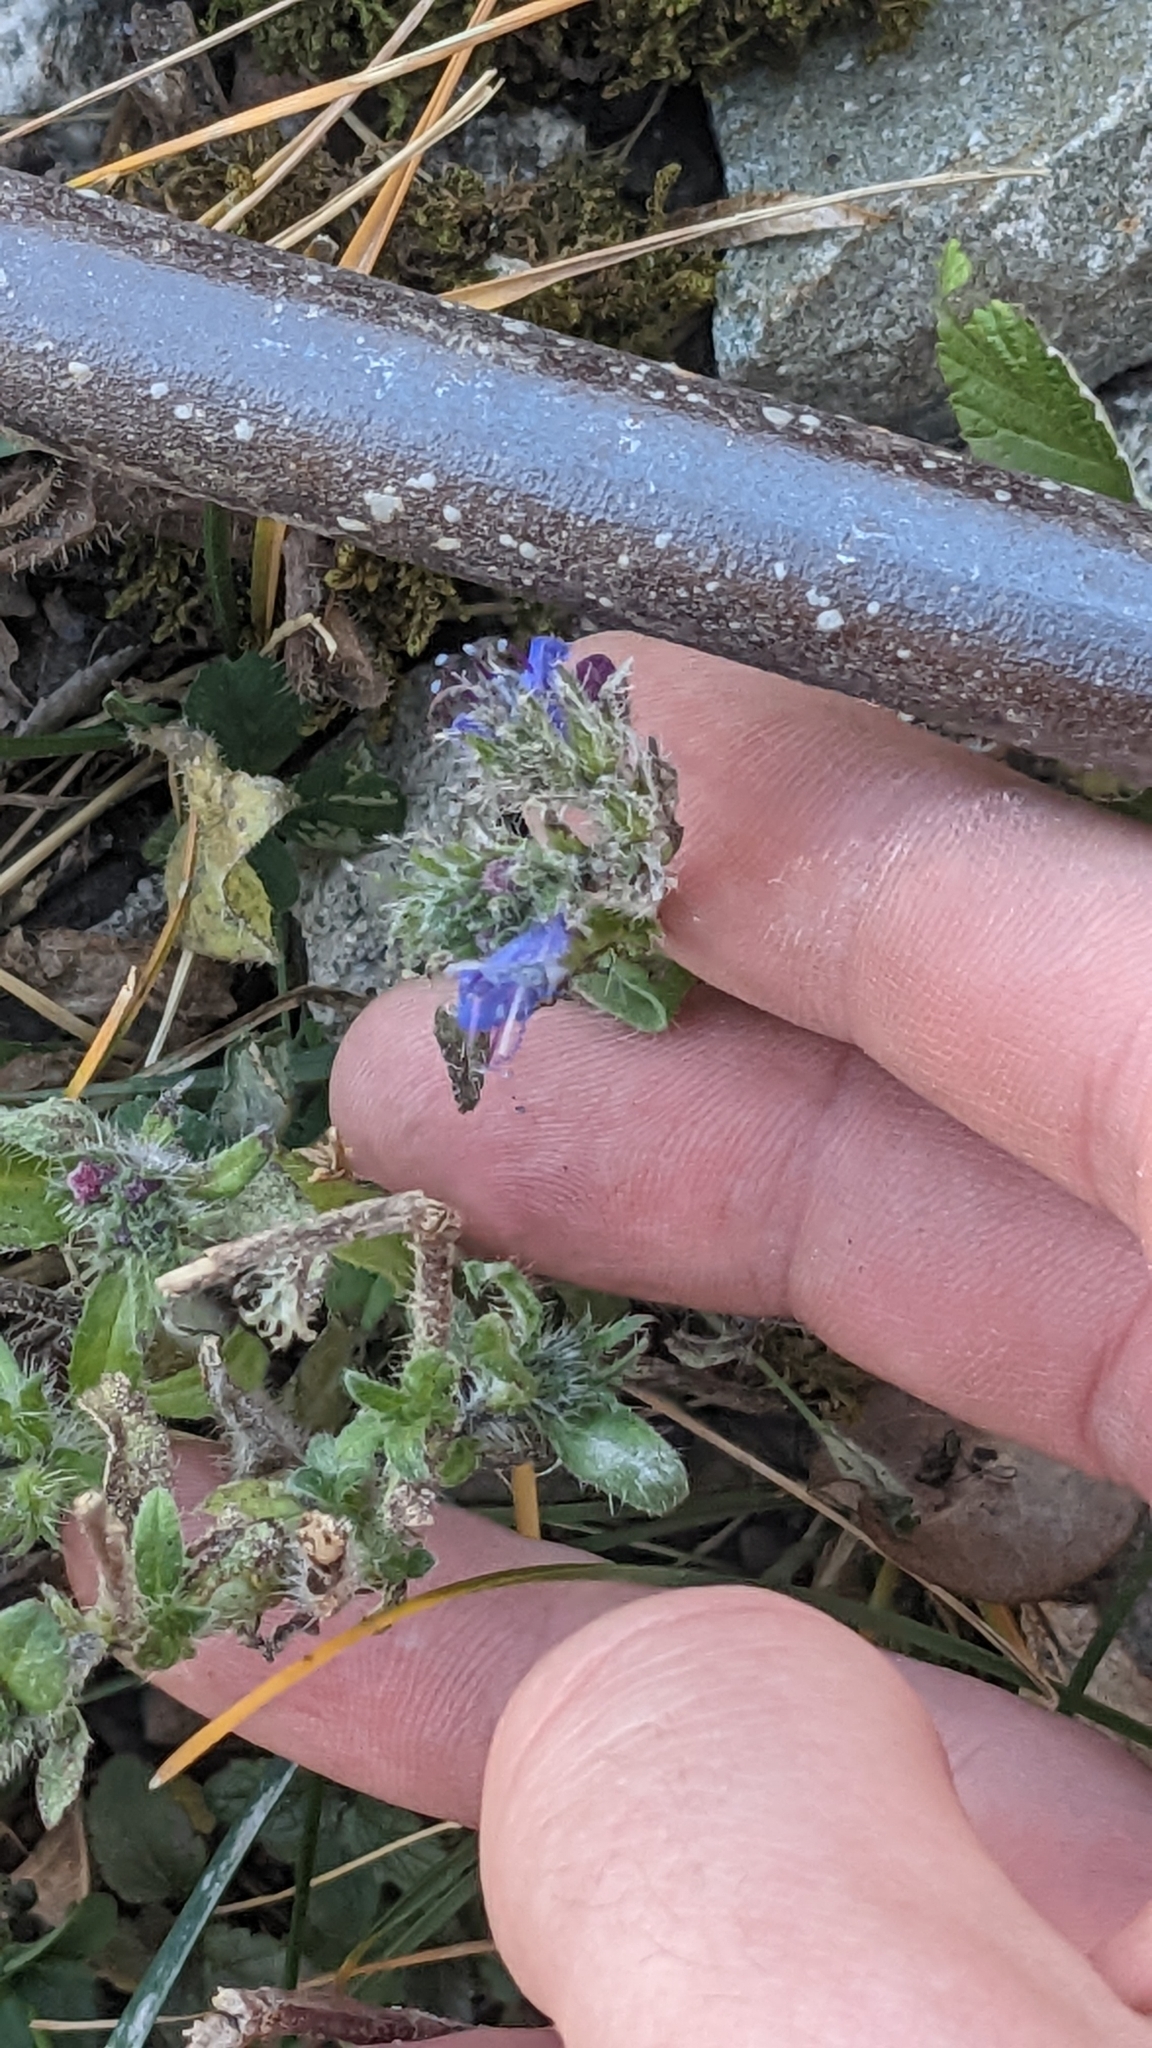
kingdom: Plantae
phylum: Tracheophyta
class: Magnoliopsida
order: Boraginales
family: Boraginaceae
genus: Echium
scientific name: Echium vulgare
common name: Common viper's bugloss
